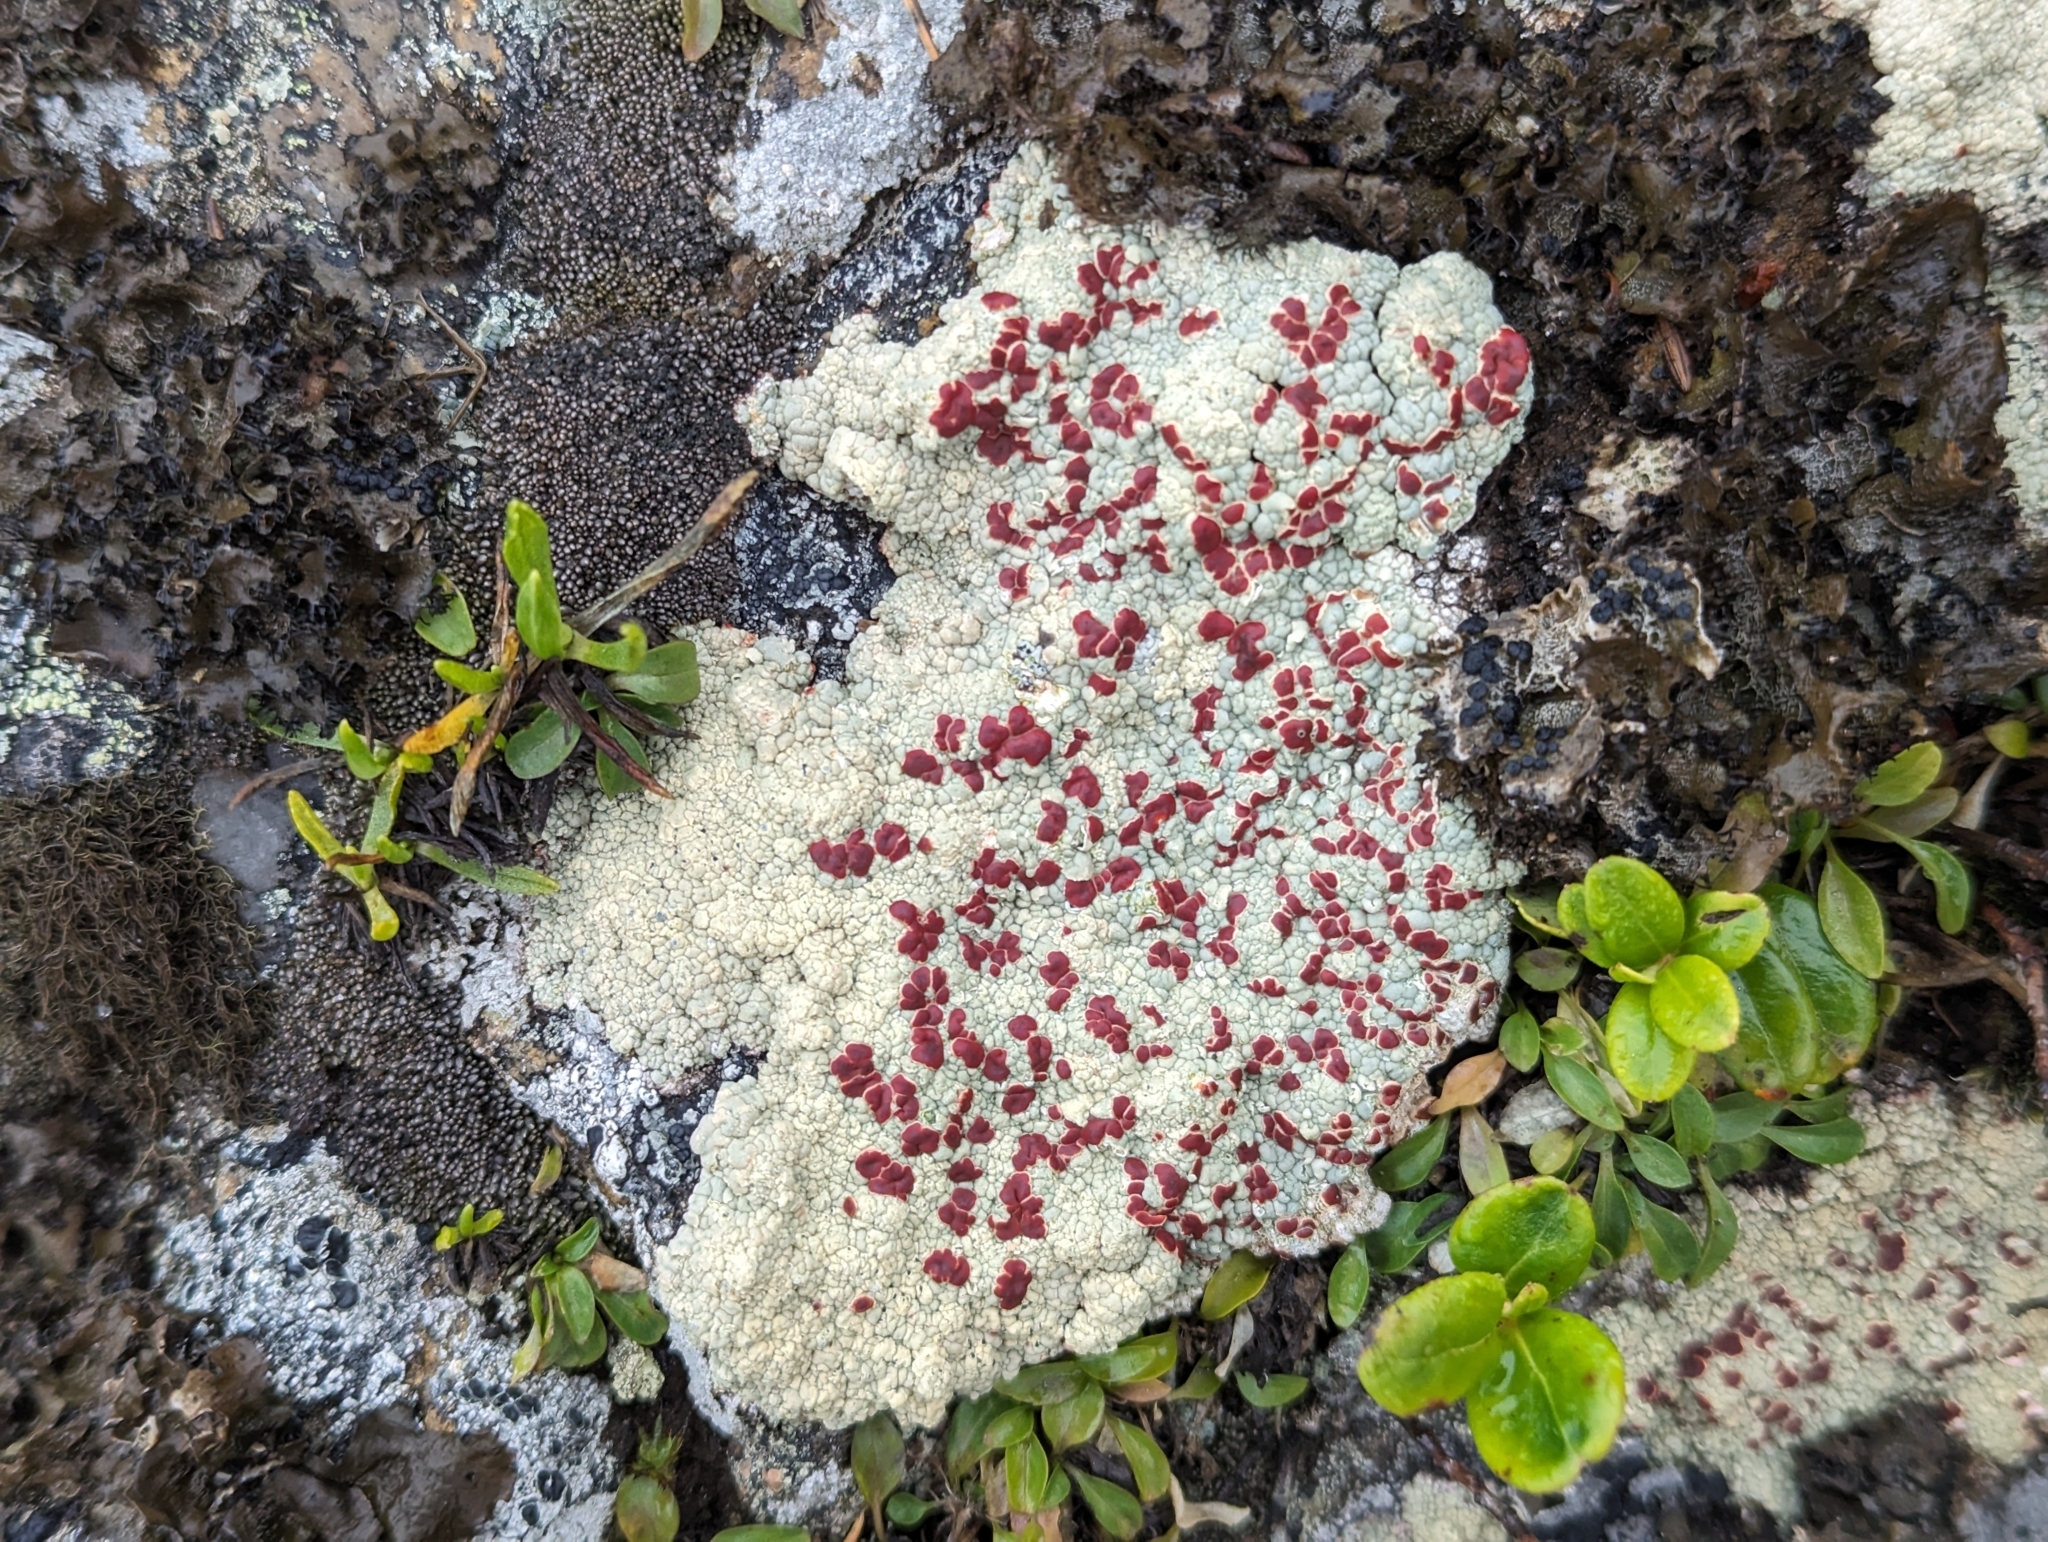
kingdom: Fungi
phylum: Ascomycota
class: Lecanoromycetes
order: Umbilicariales
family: Ophioparmaceae
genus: Ophioparma
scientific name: Ophioparma ventosa
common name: Blood-spot
